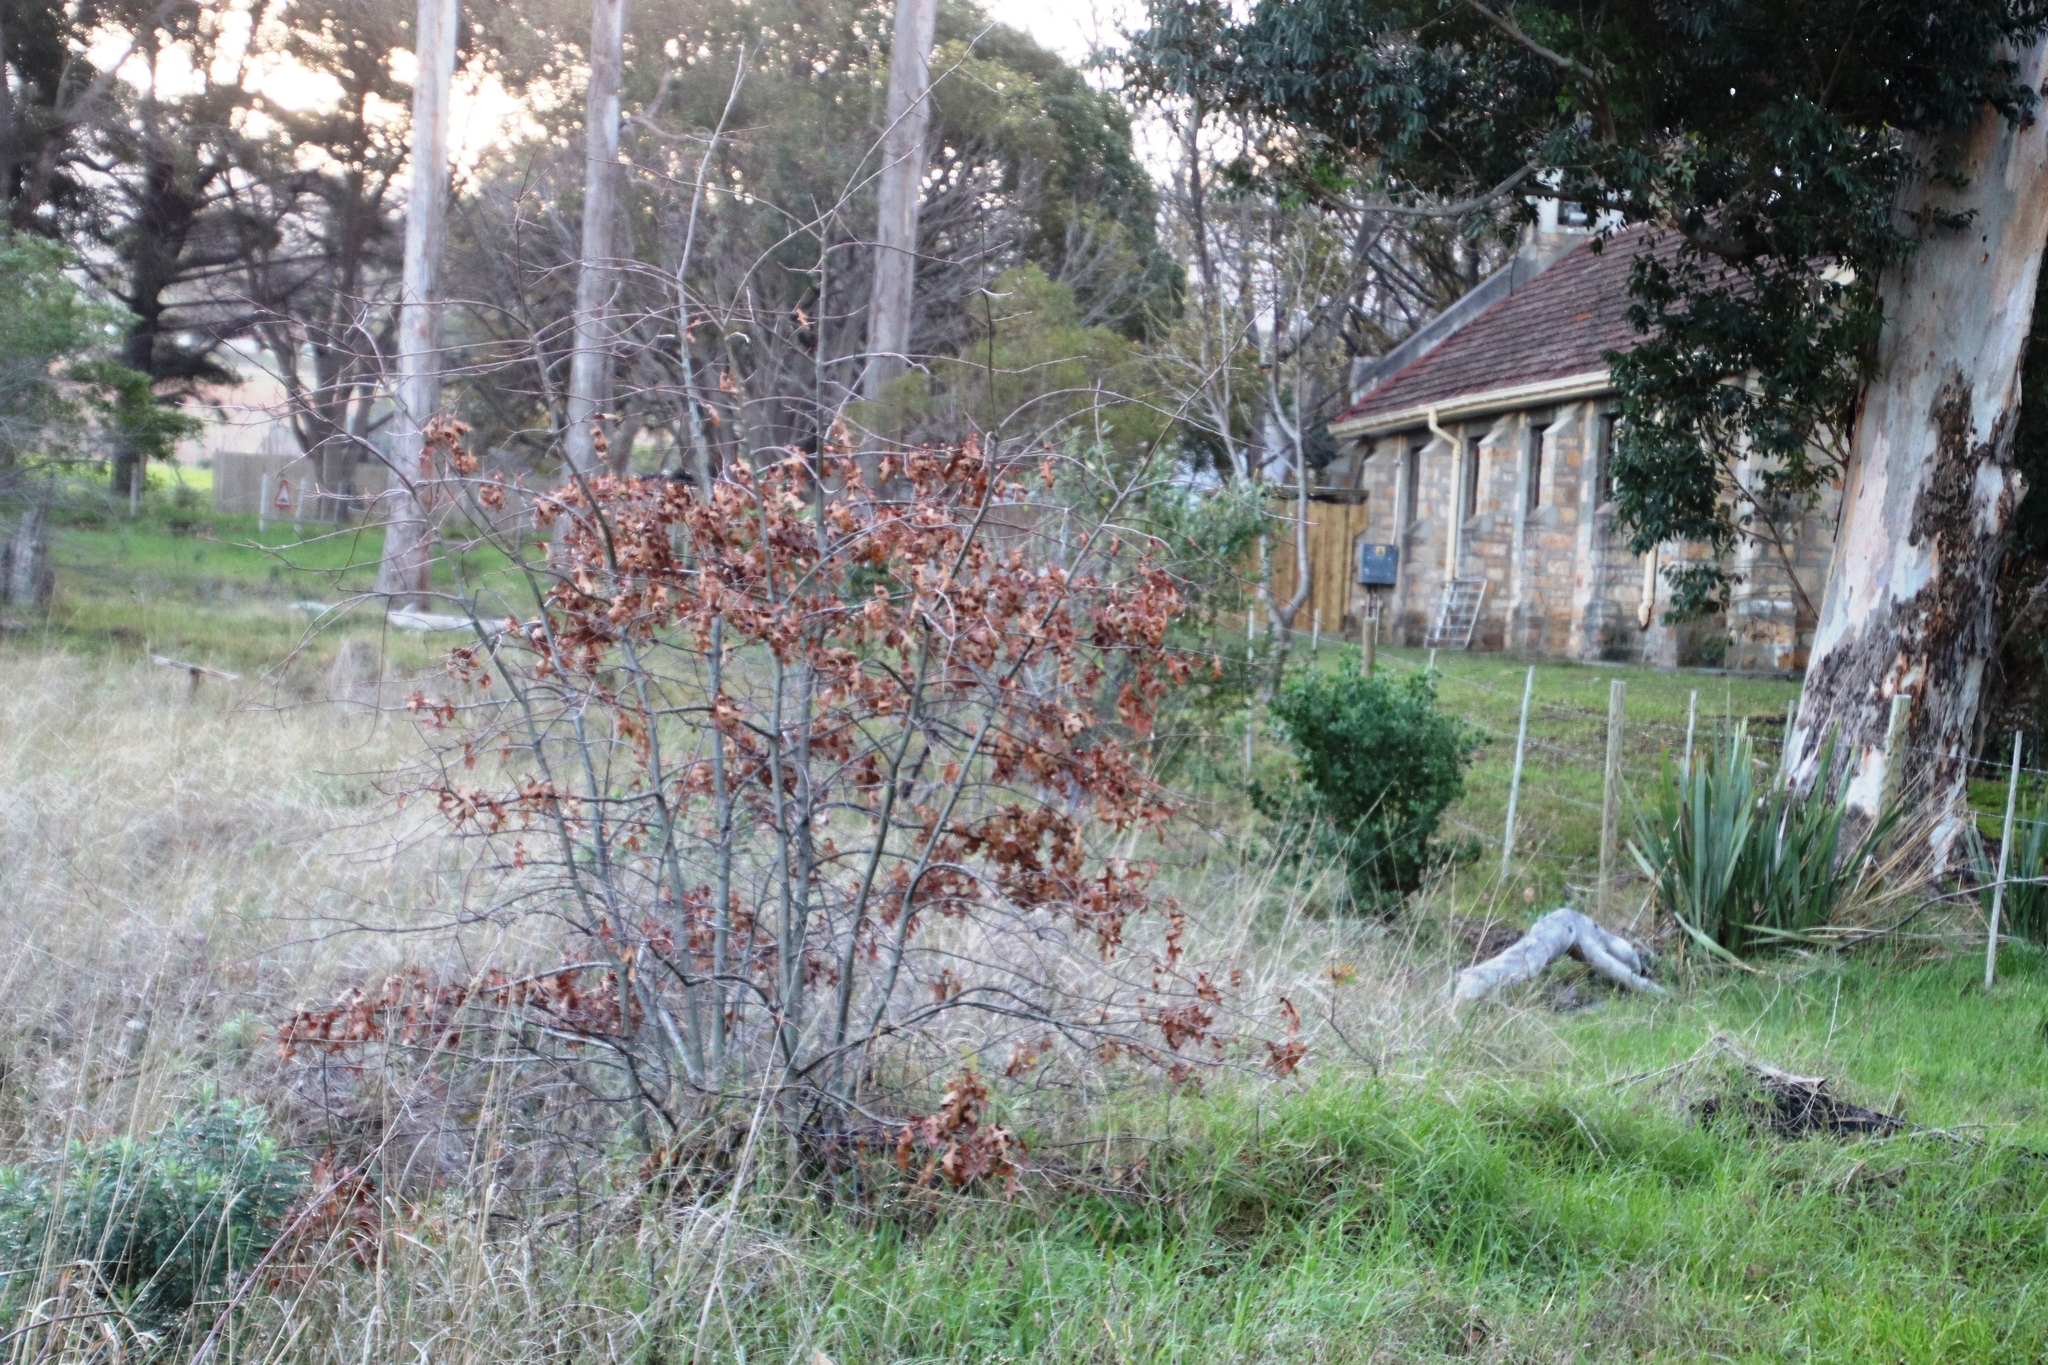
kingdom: Plantae
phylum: Tracheophyta
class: Magnoliopsida
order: Fagales
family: Fagaceae
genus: Quercus
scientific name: Quercus palustris
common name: Pin oak
